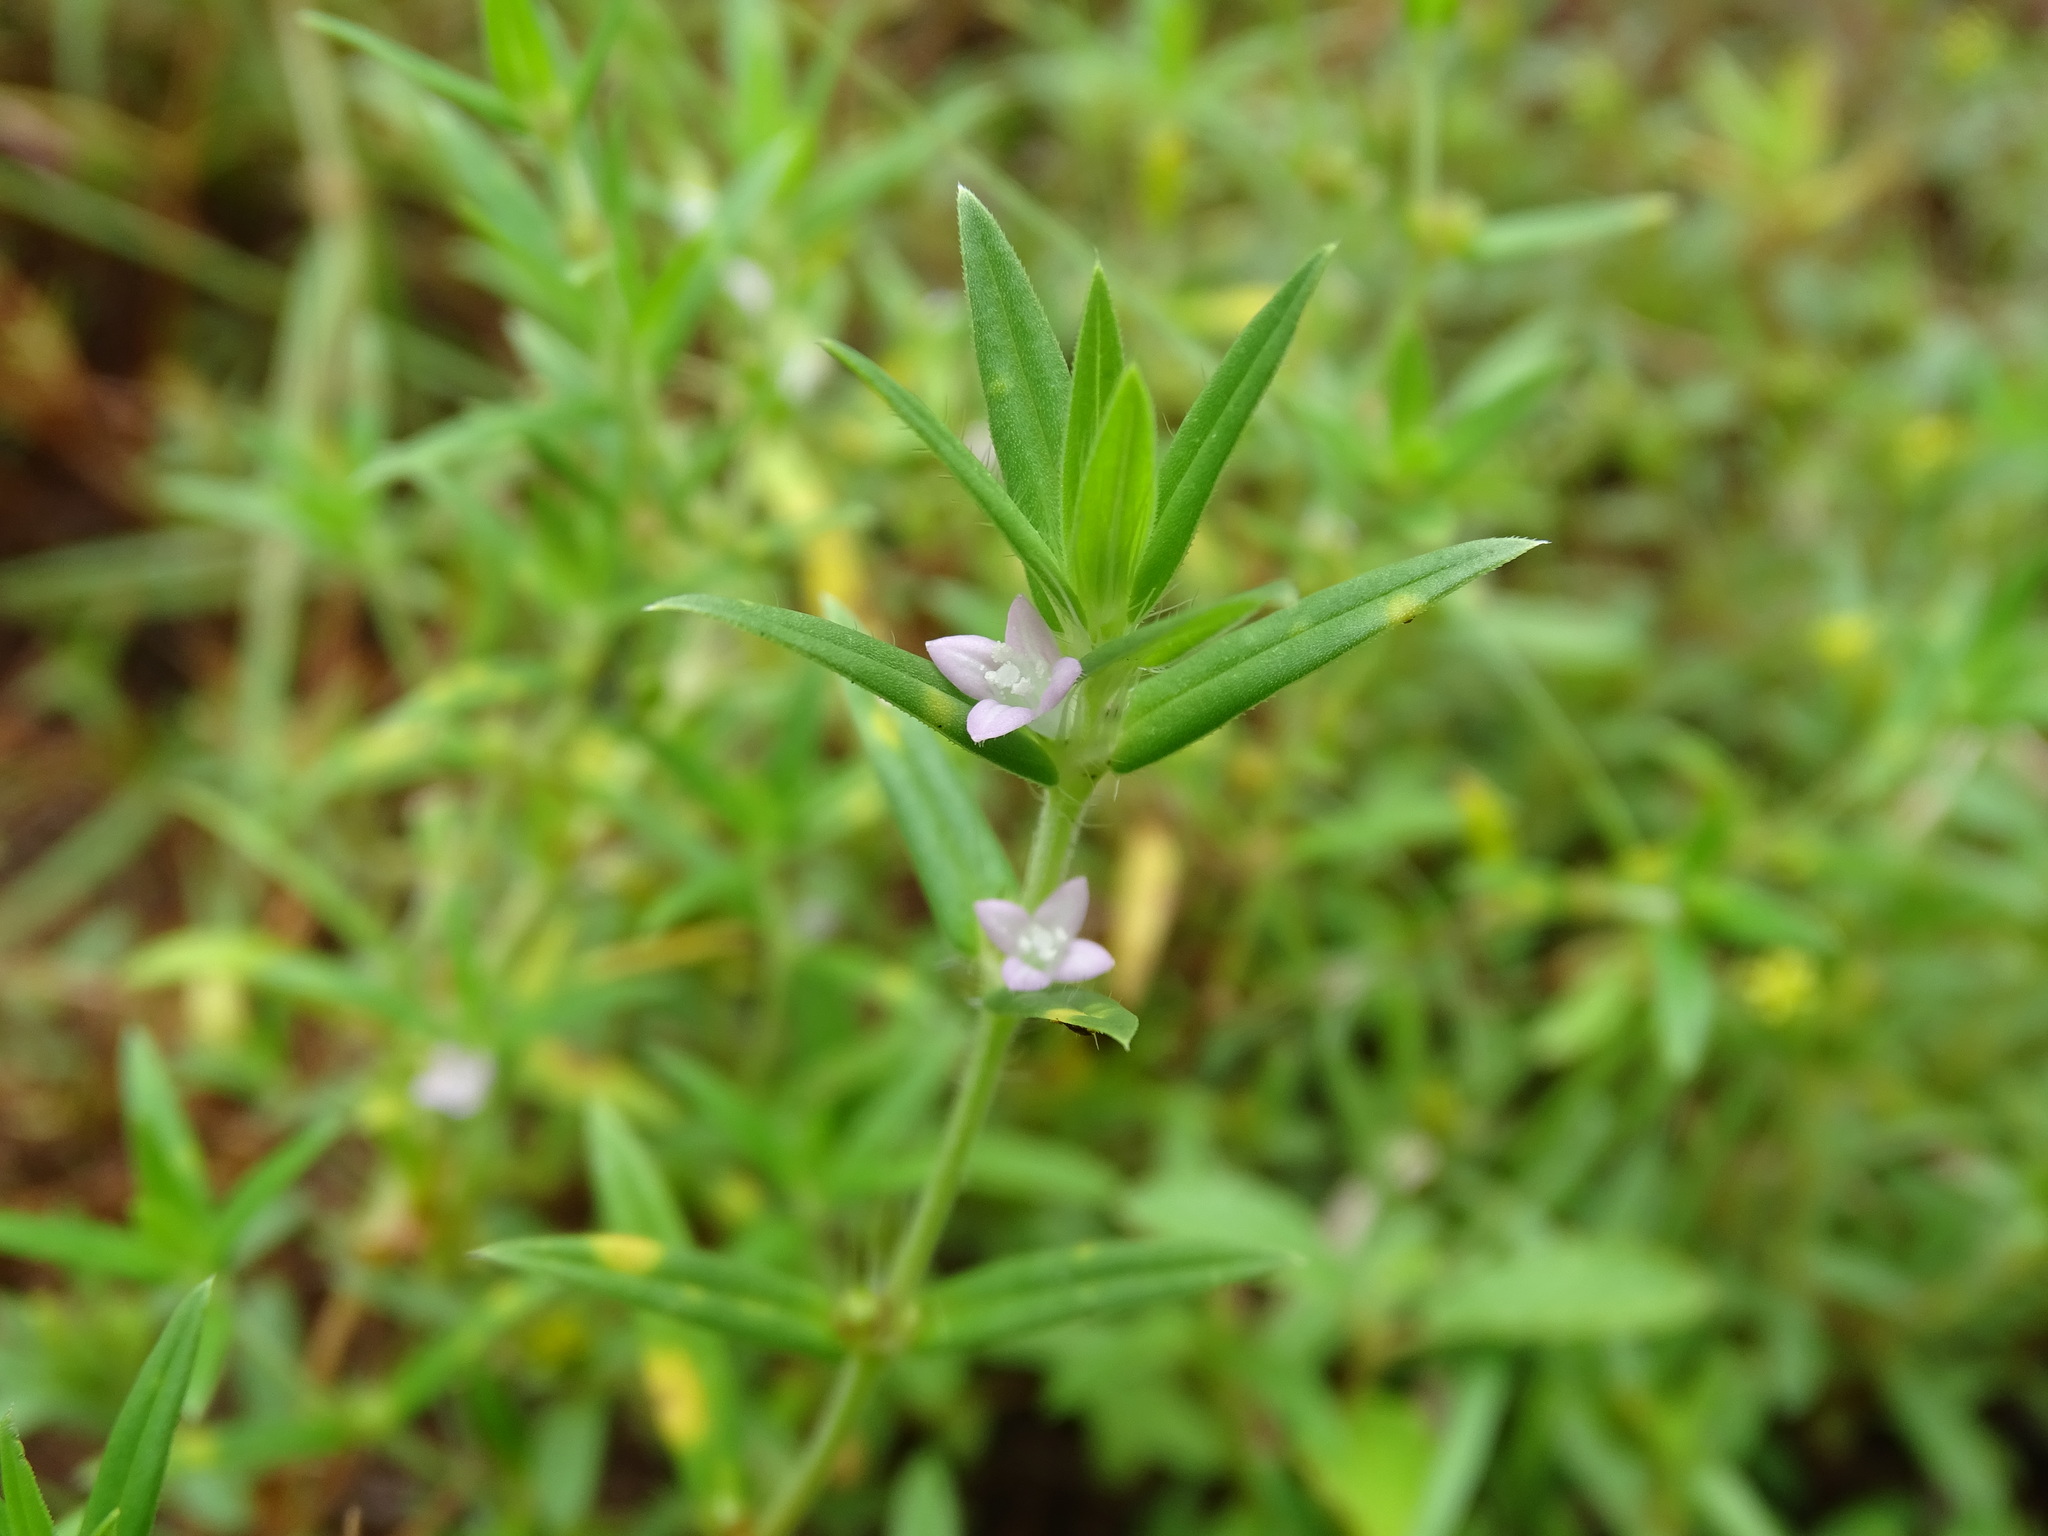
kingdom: Plantae
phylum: Tracheophyta
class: Magnoliopsida
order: Gentianales
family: Rubiaceae
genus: Hexasepalum
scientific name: Hexasepalum teres
